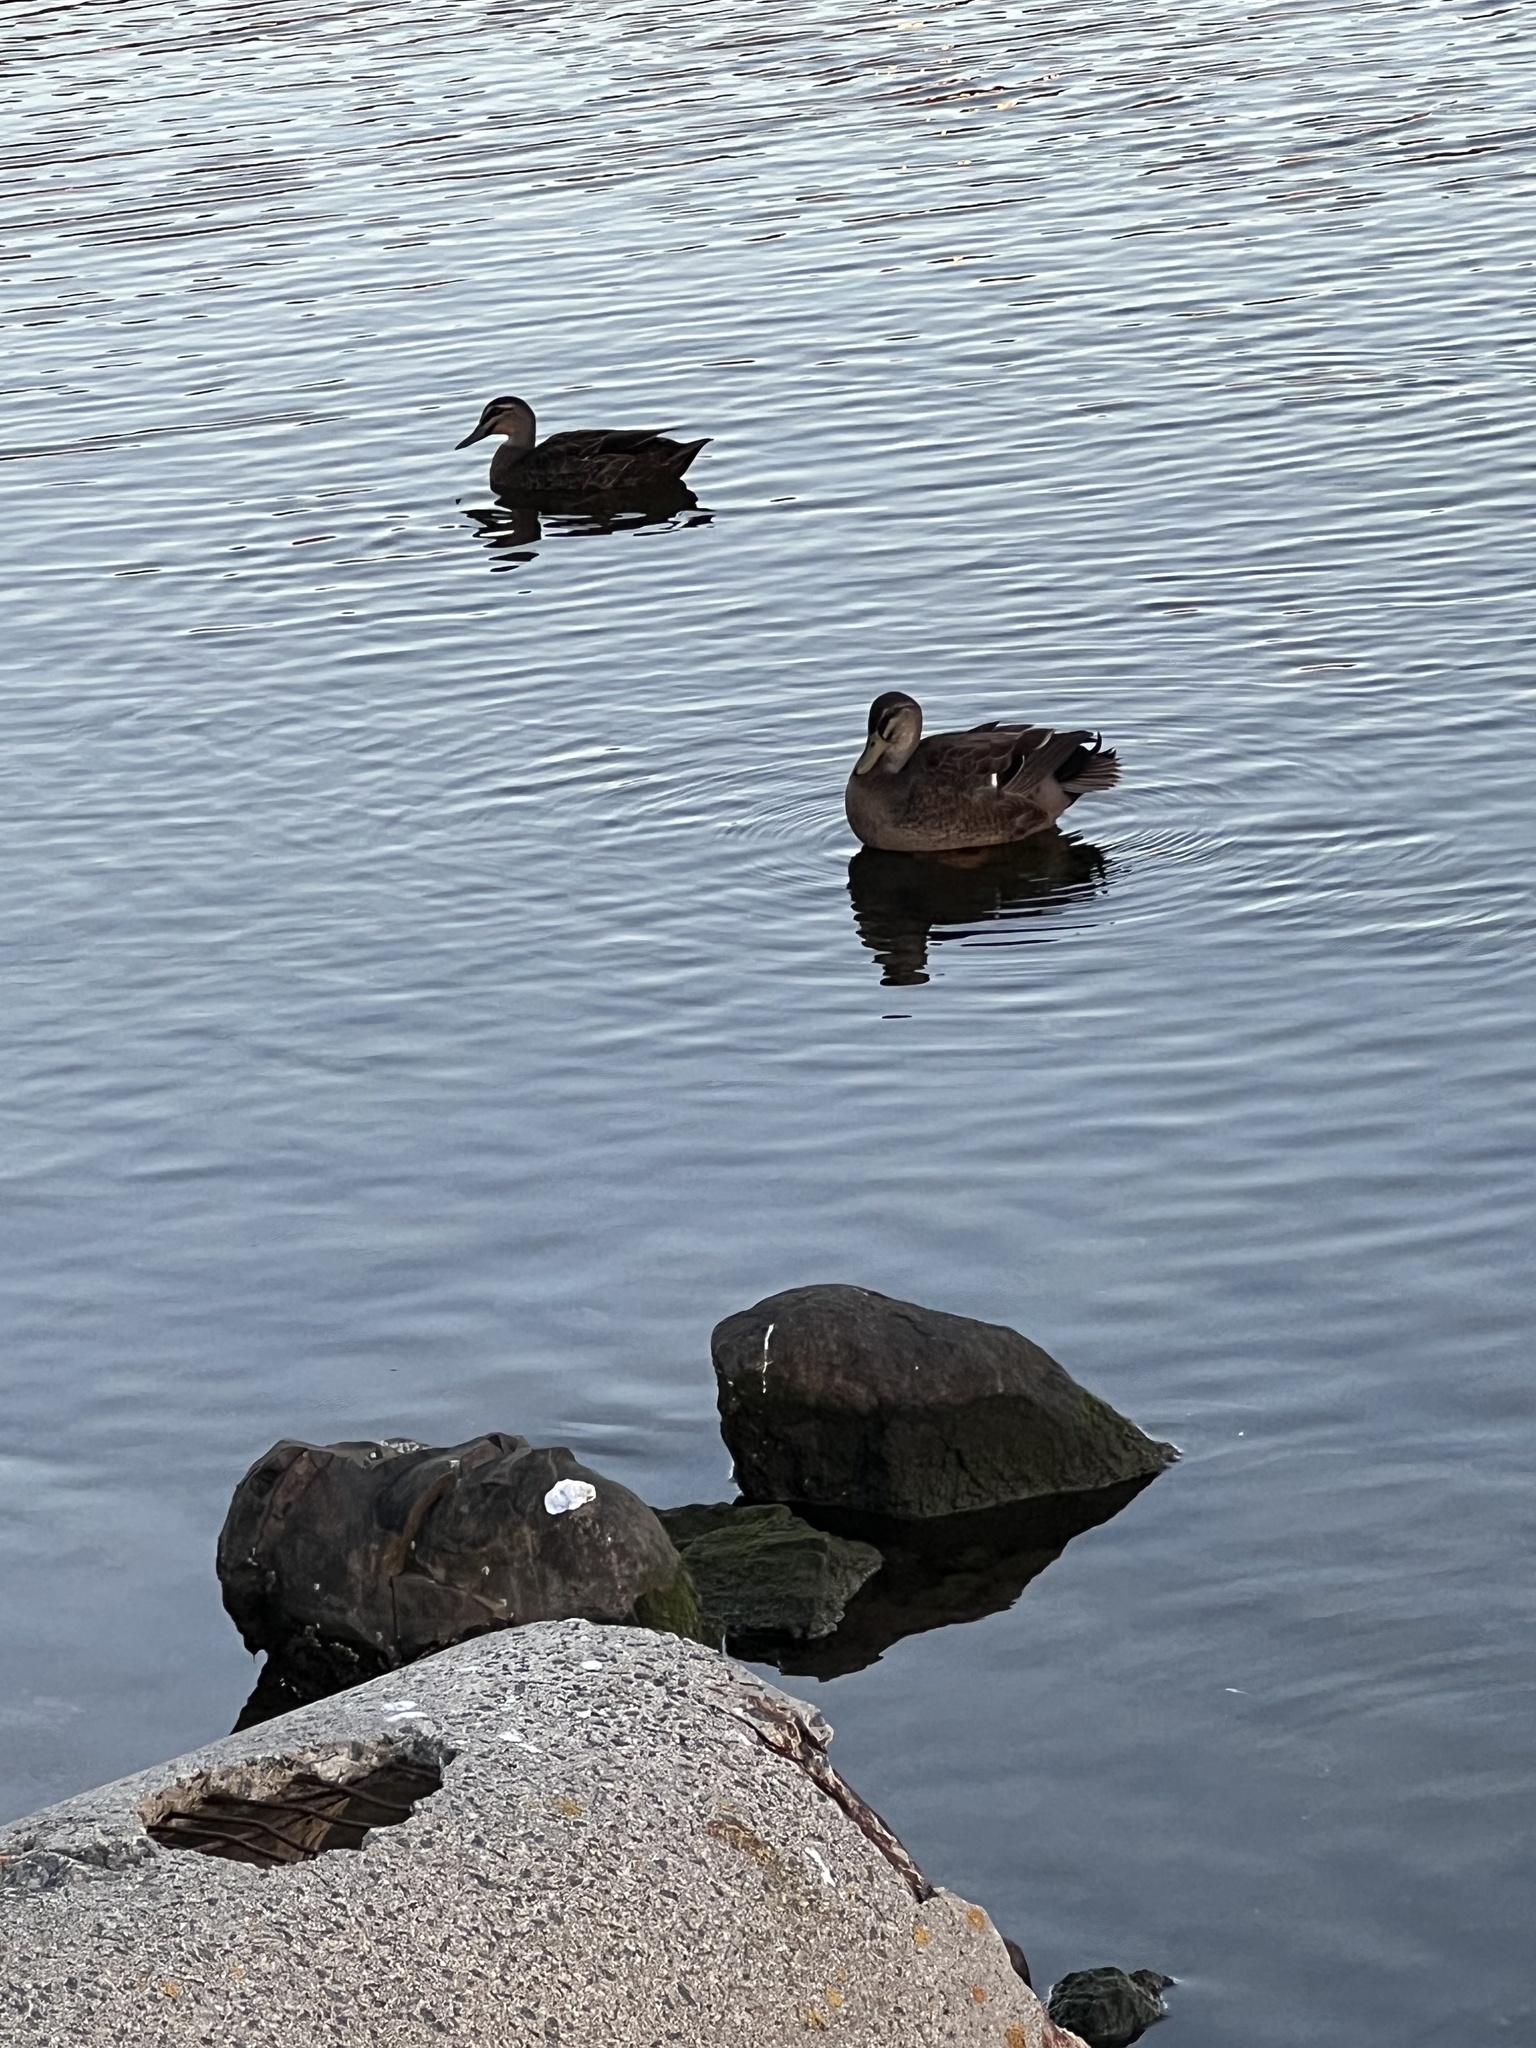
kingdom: Animalia
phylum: Chordata
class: Aves
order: Anseriformes
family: Anatidae
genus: Anas
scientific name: Anas
